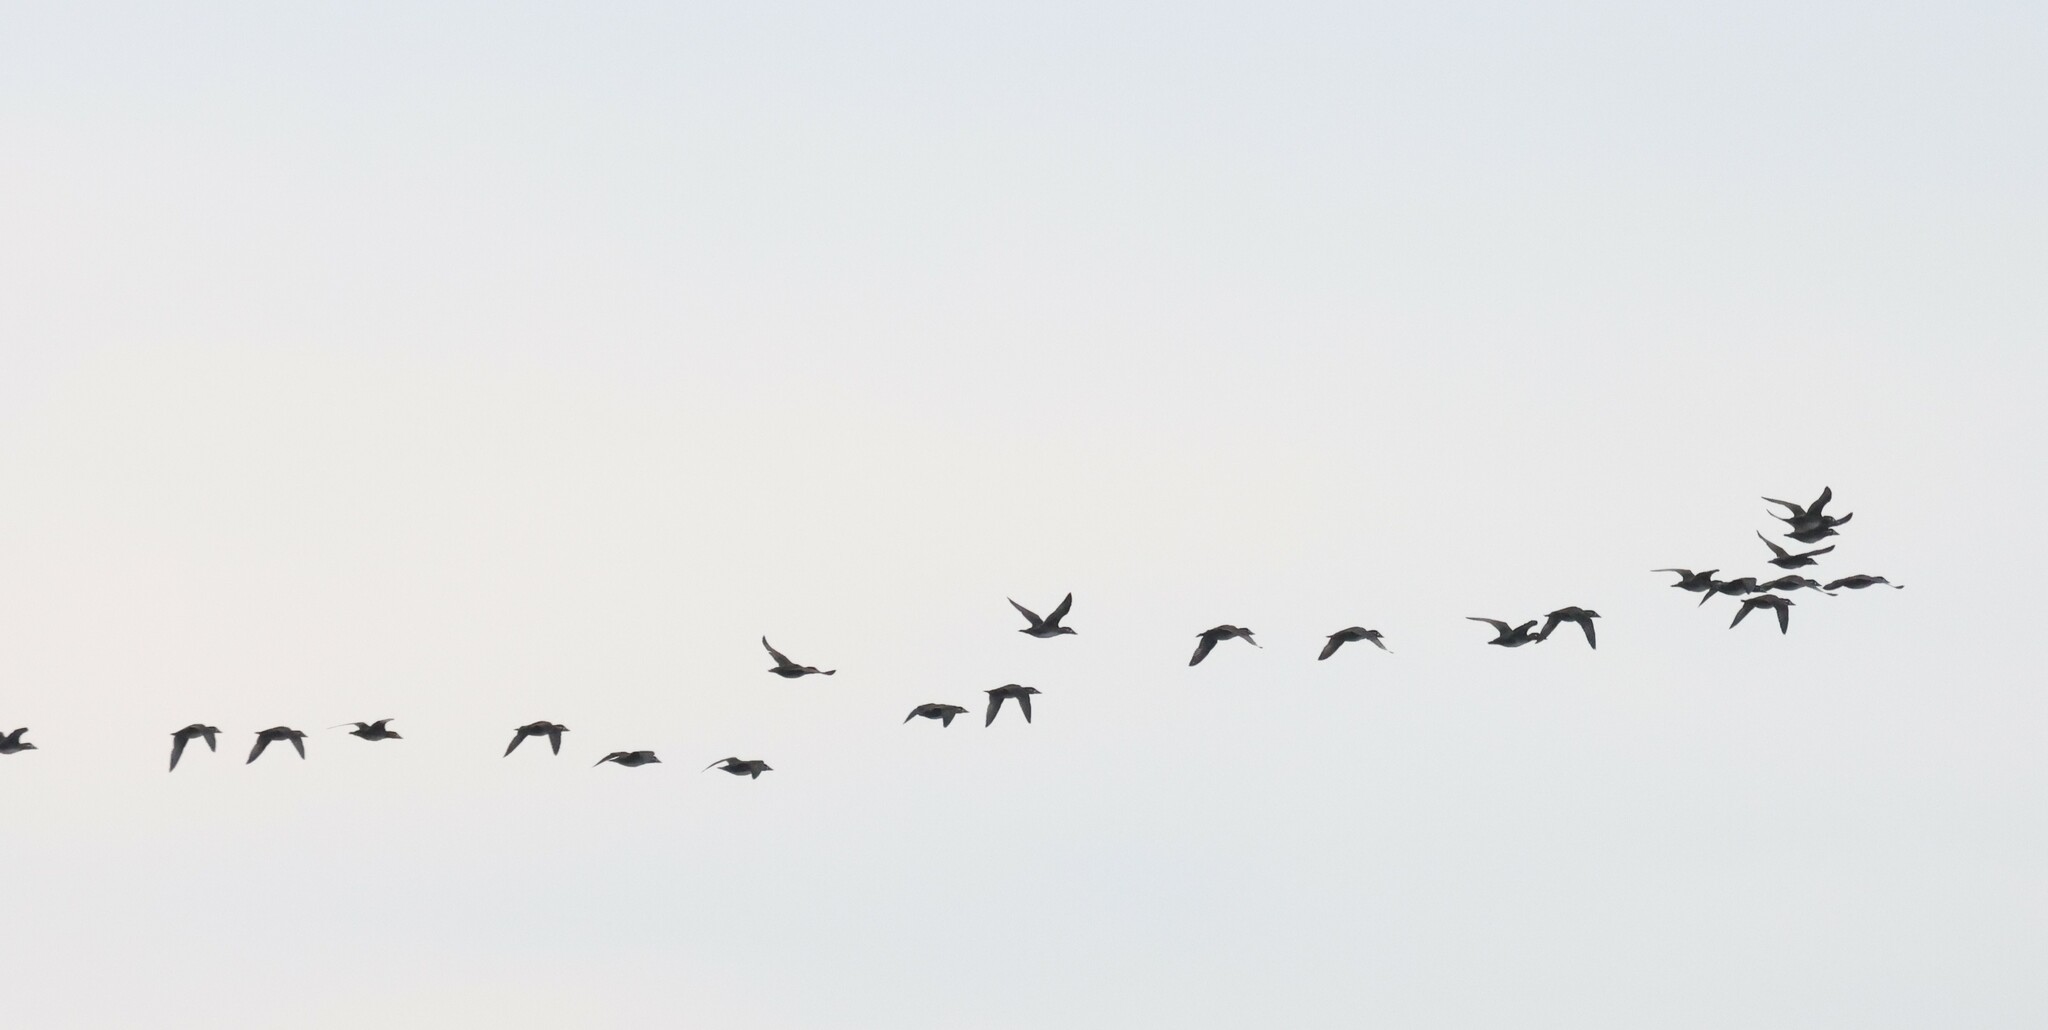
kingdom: Animalia
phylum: Chordata
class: Aves
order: Anseriformes
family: Anatidae
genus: Melanitta
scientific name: Melanitta perspicillata
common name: Surf scoter
